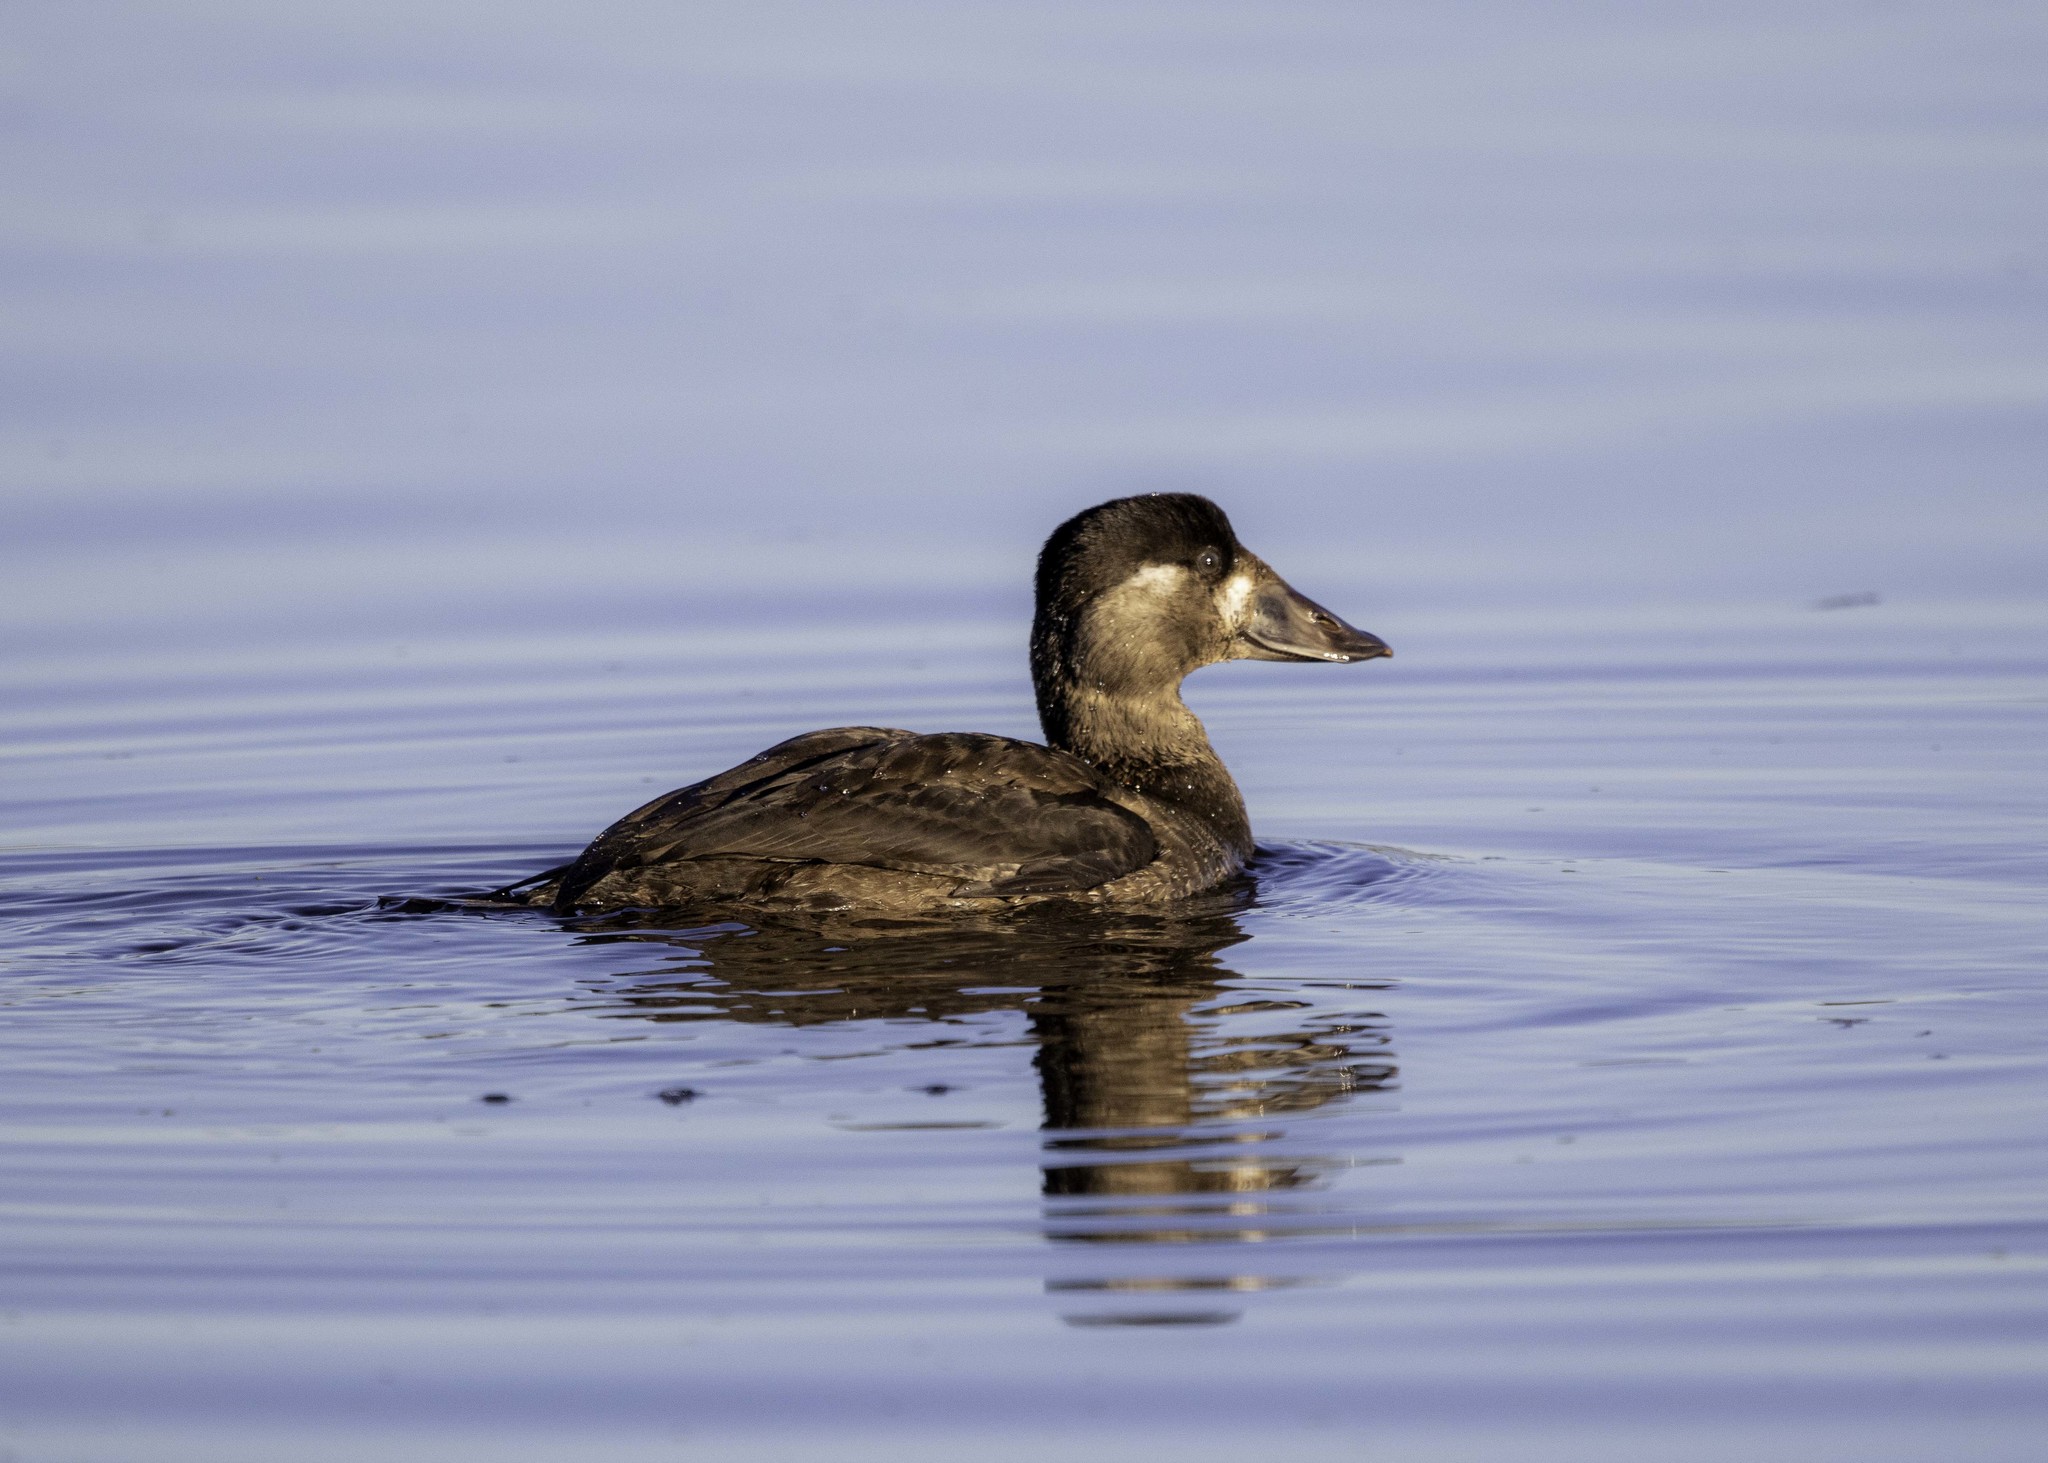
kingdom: Animalia
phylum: Chordata
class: Aves
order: Anseriformes
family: Anatidae
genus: Melanitta
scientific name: Melanitta deglandi
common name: White-winged scoter
